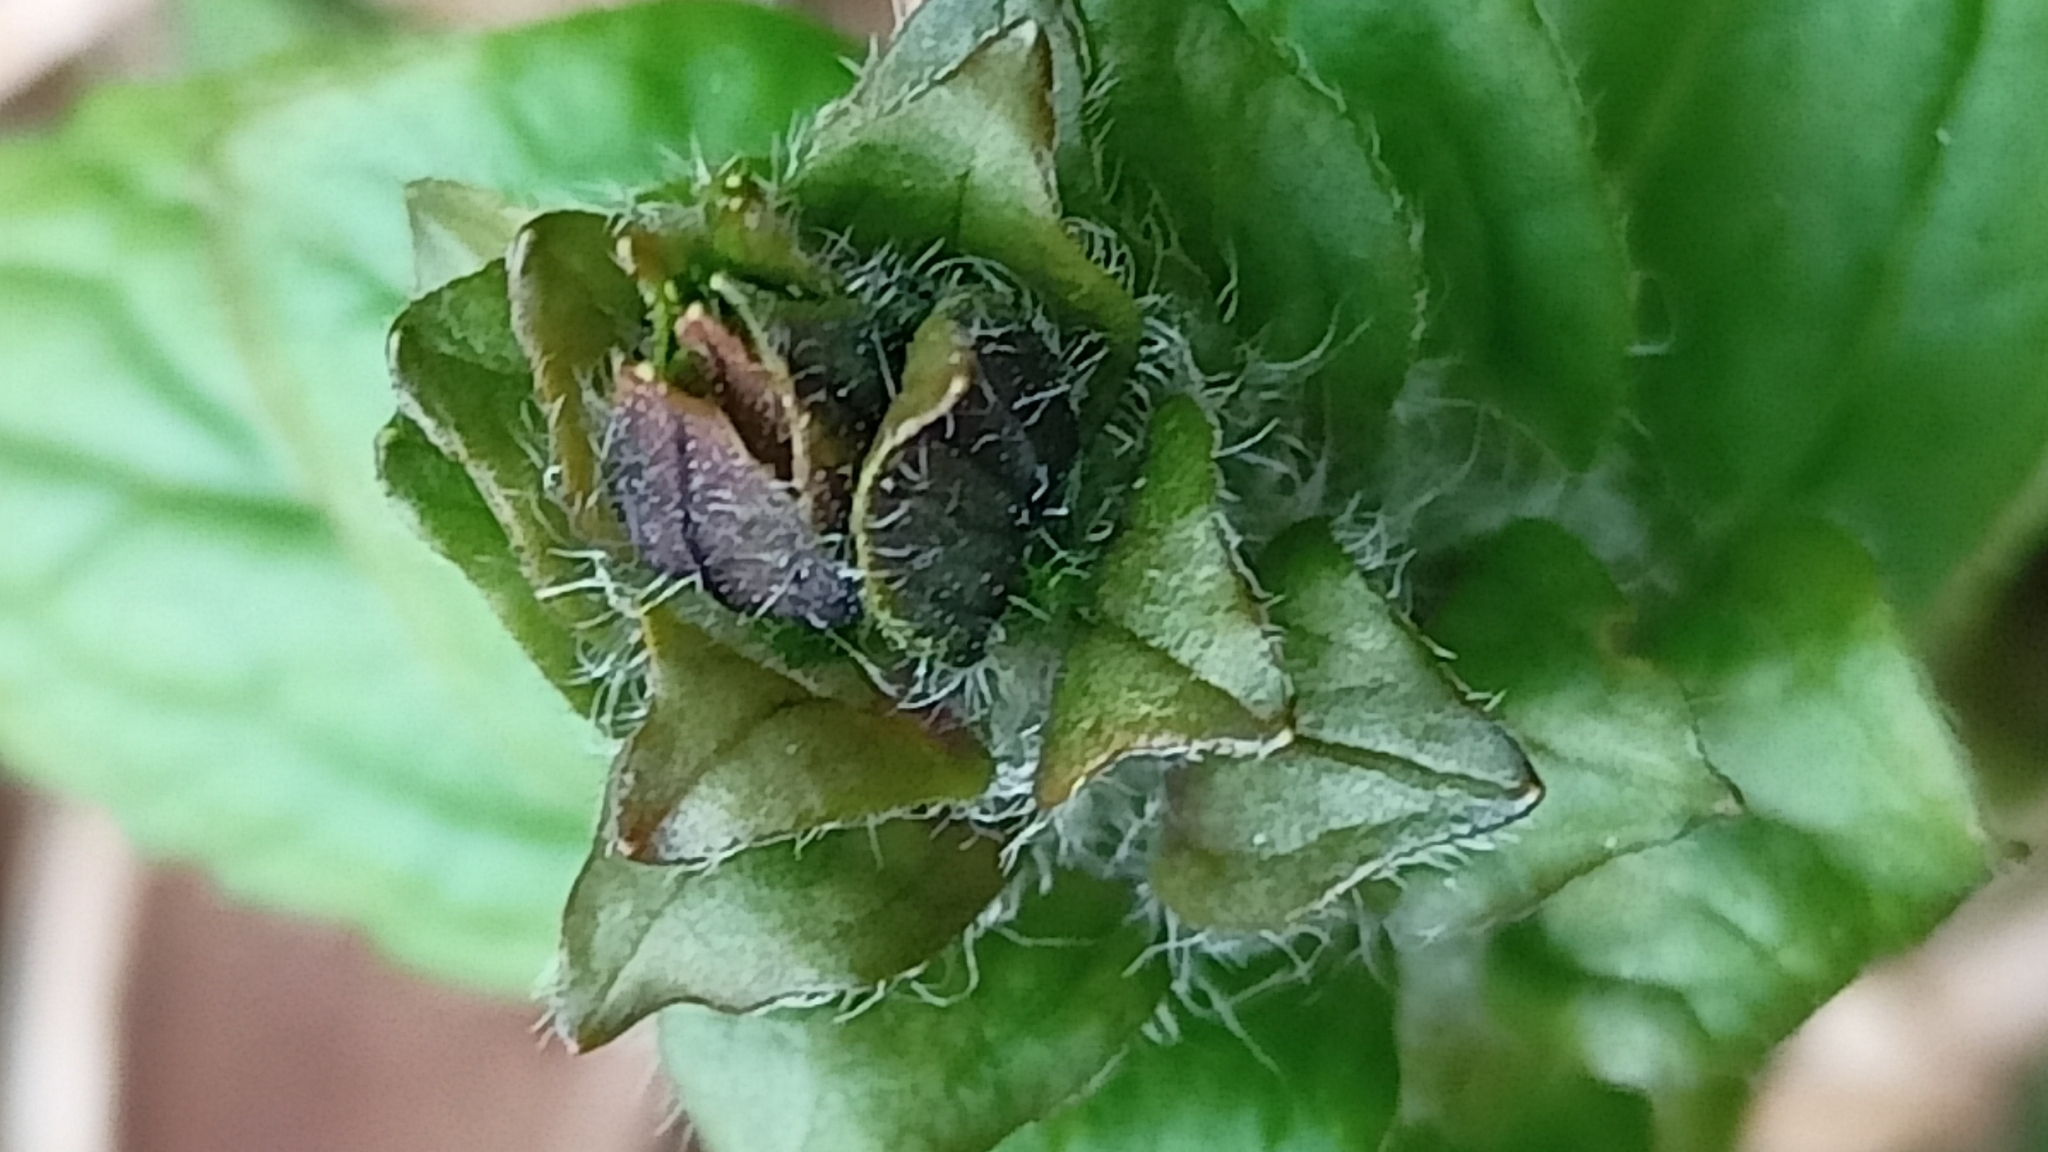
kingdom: Plantae
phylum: Tracheophyta
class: Magnoliopsida
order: Lamiales
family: Lamiaceae
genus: Ajuga
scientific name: Ajuga reptans
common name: Bugle
